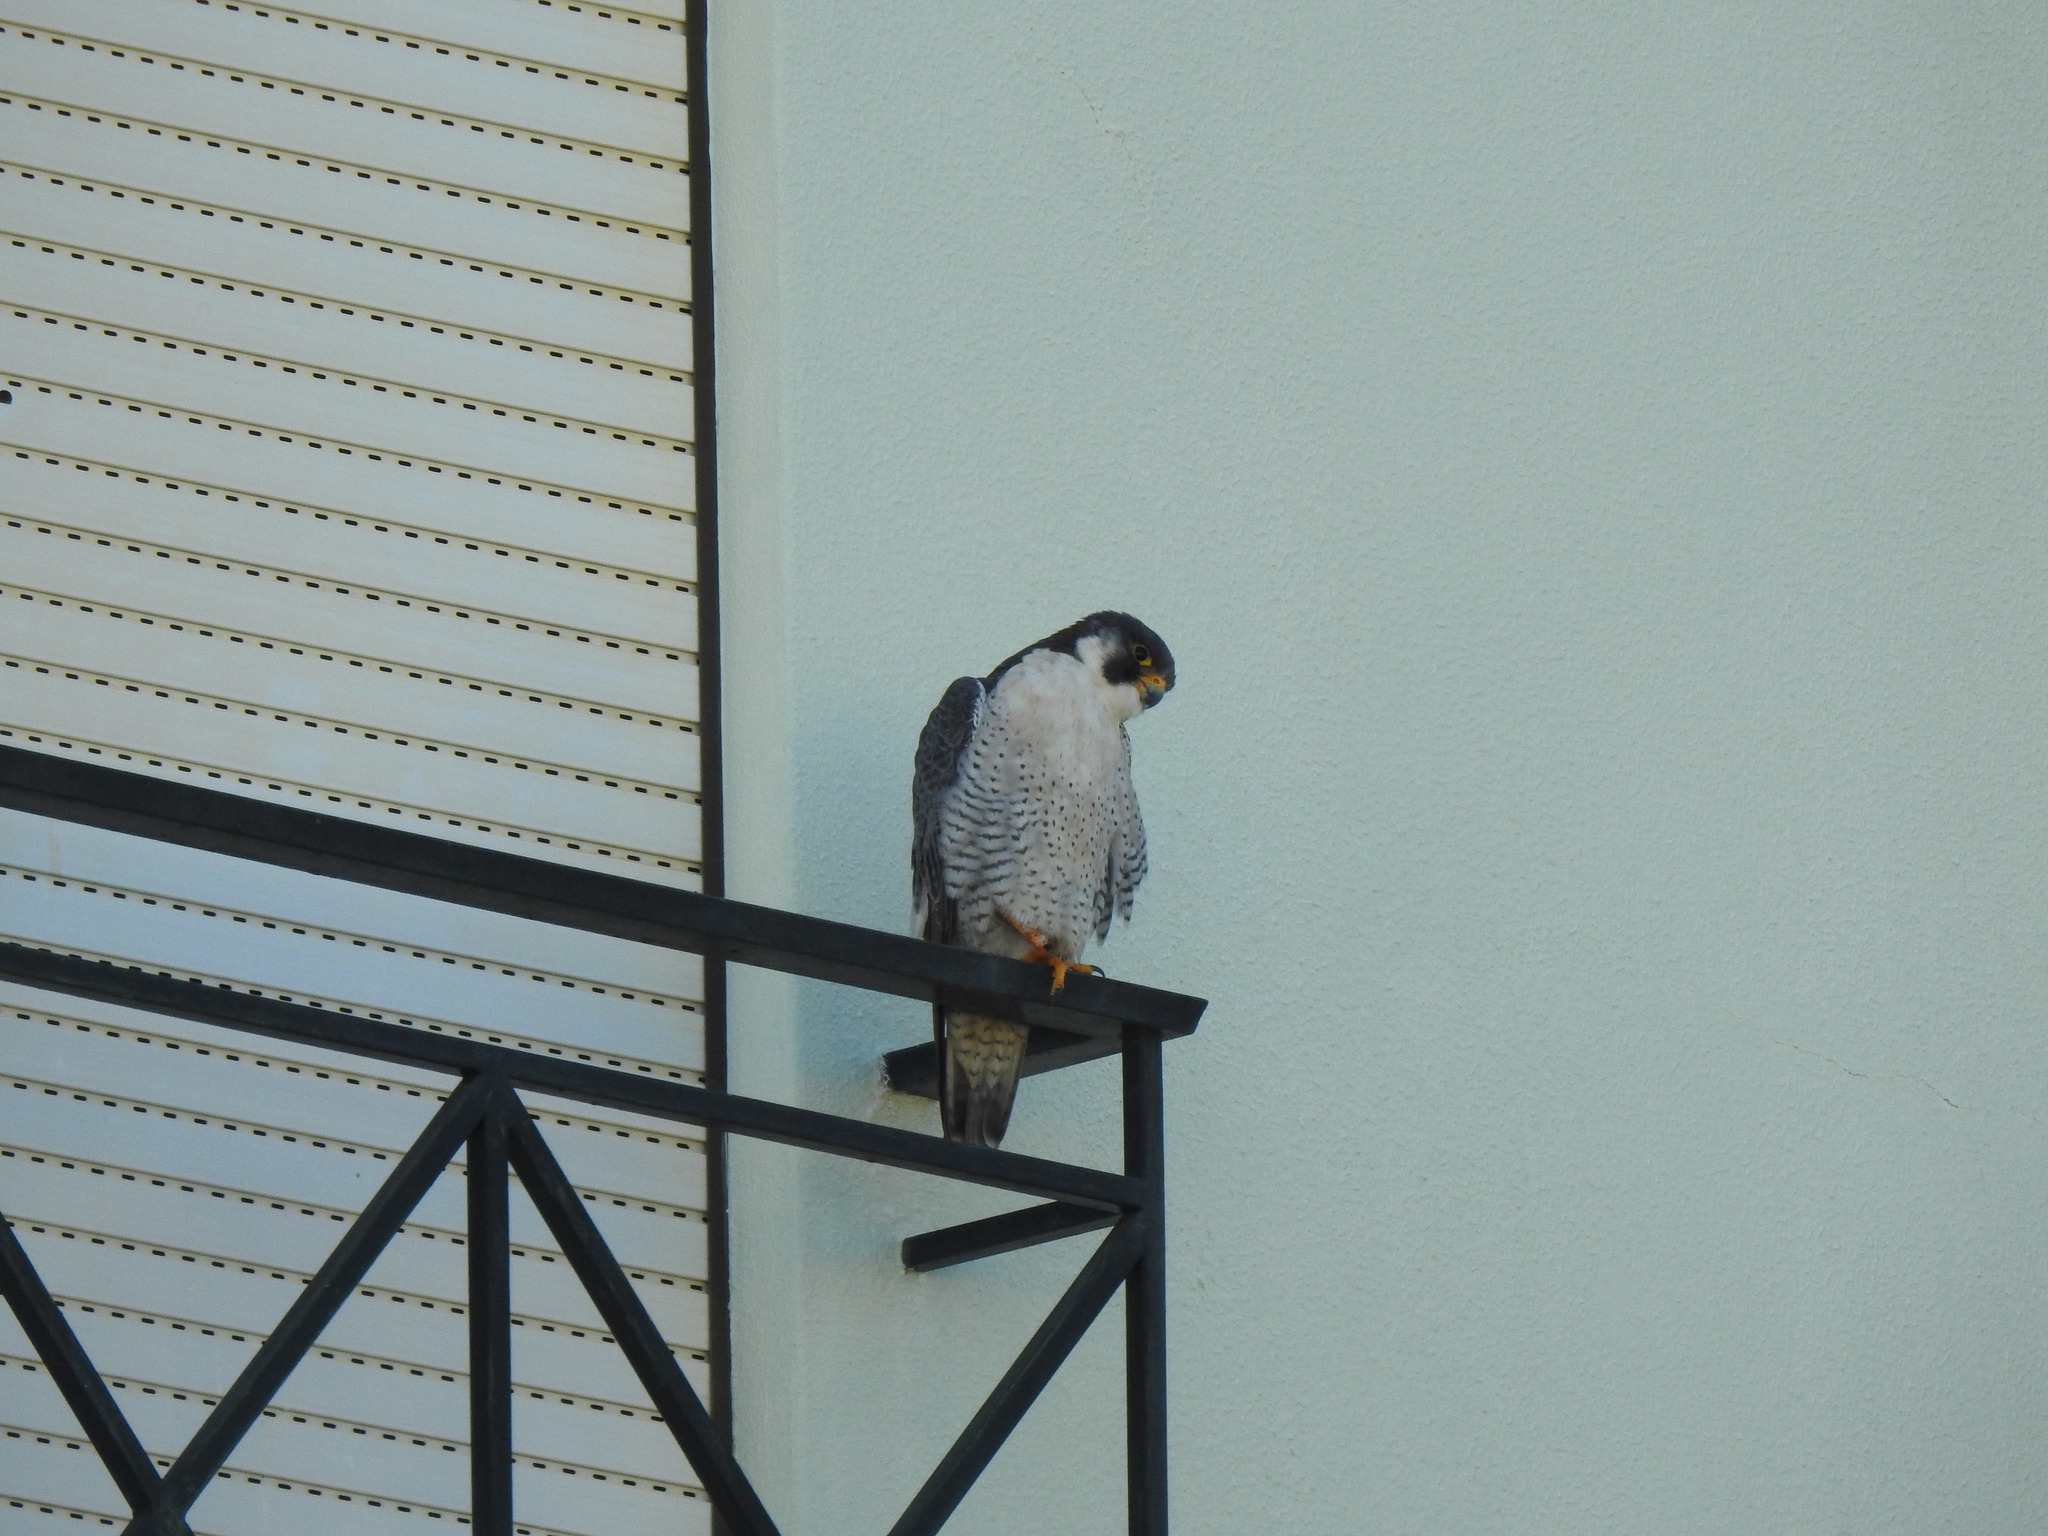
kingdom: Animalia
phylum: Chordata
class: Aves
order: Falconiformes
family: Falconidae
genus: Falco
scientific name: Falco peregrinus
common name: Peregrine falcon
